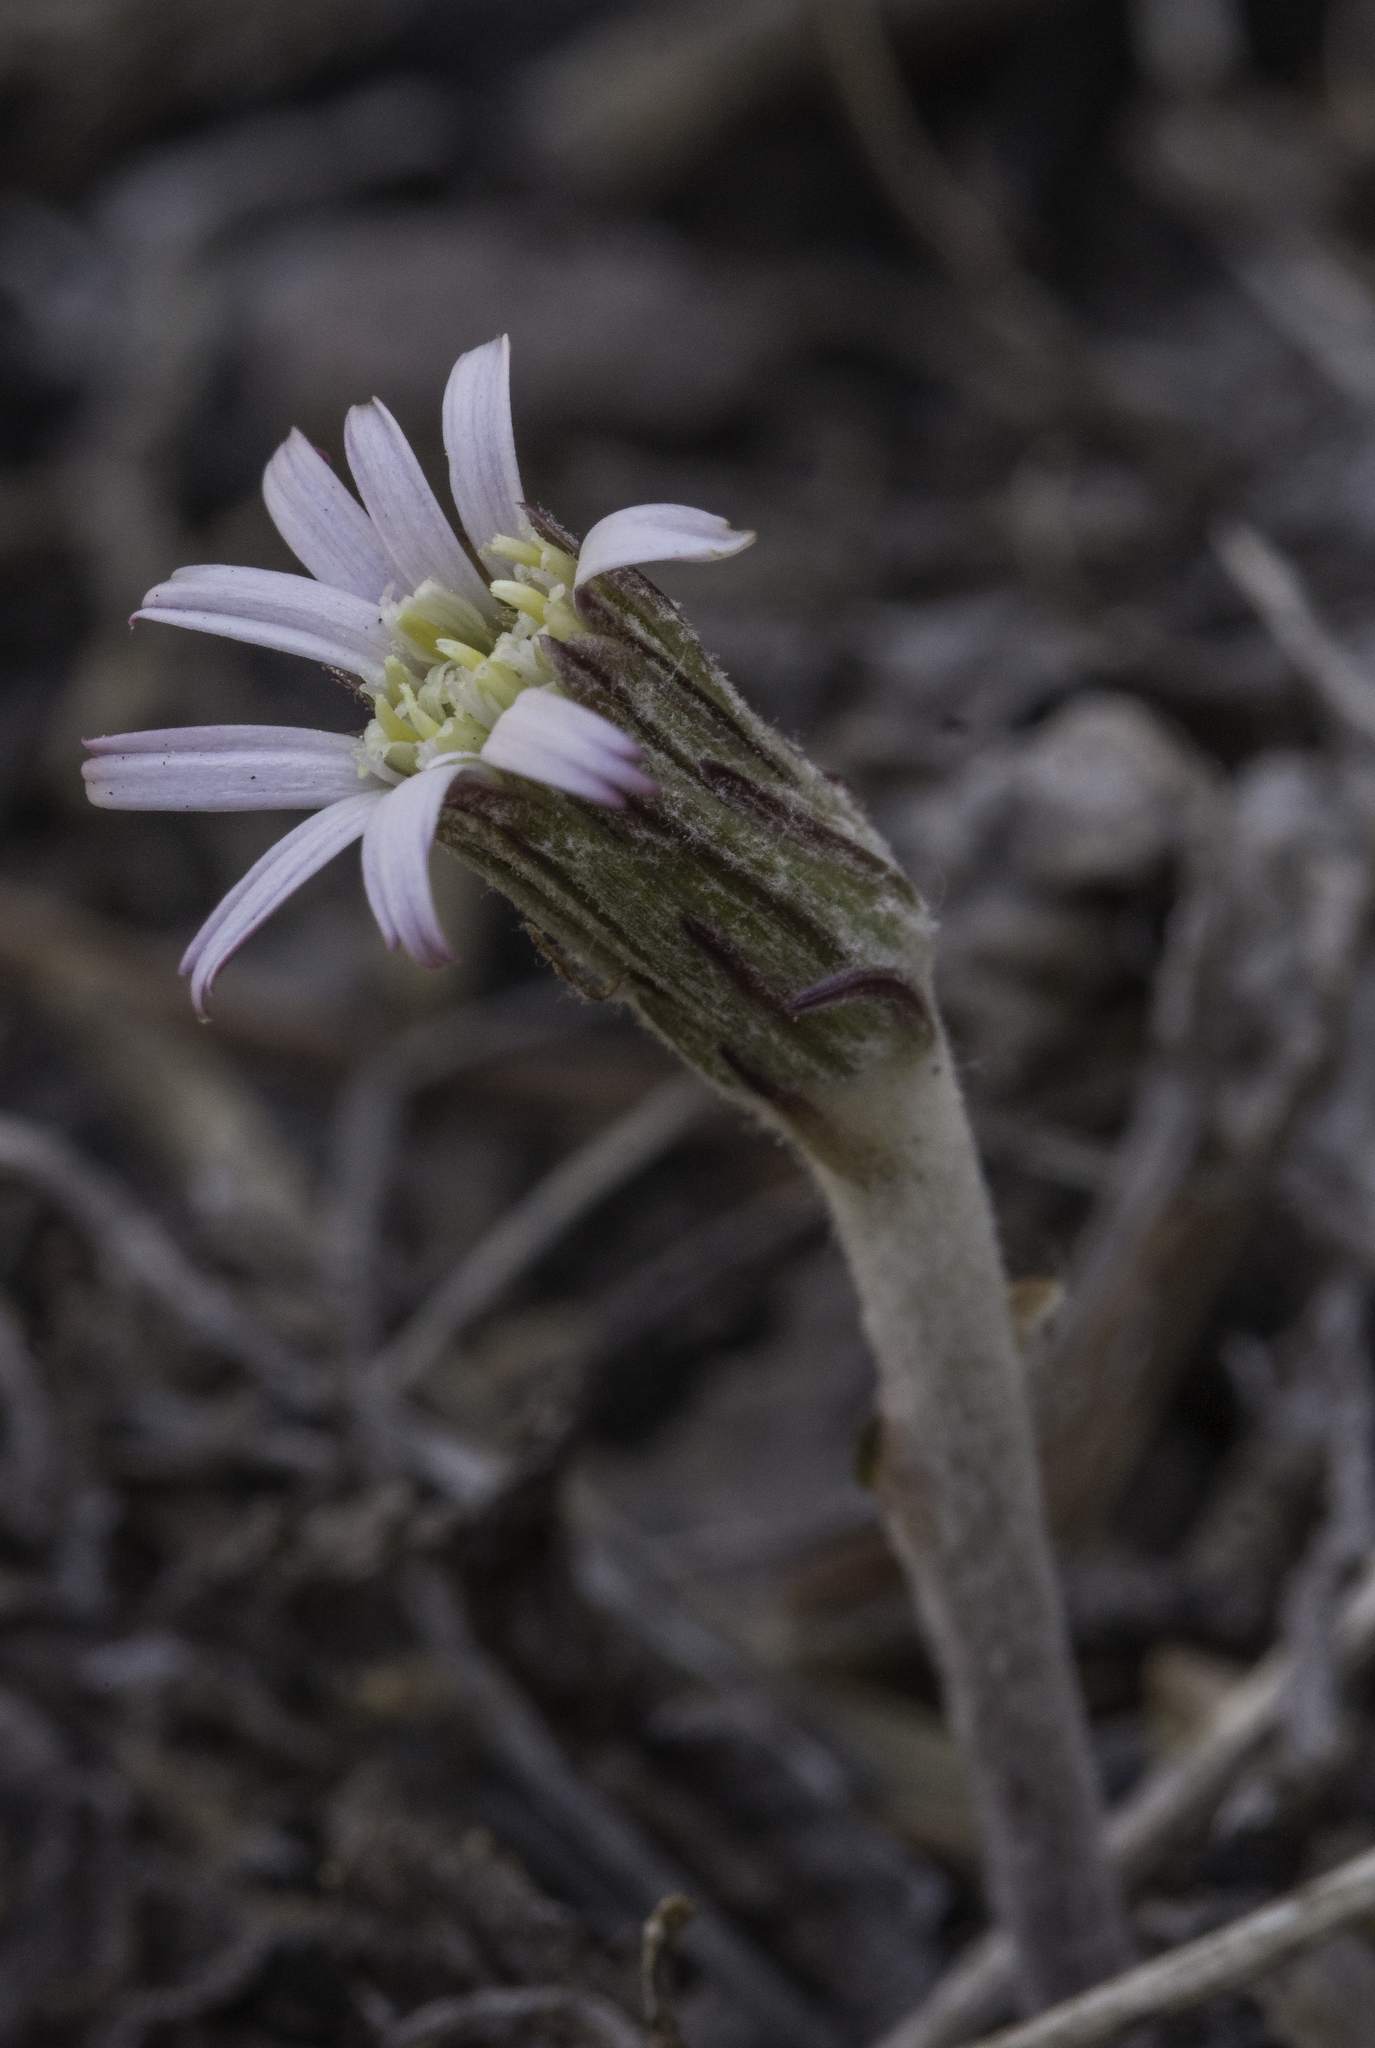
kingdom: Plantae
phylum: Tracheophyta
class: Magnoliopsida
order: Asterales
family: Asteraceae
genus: Leibnitzia
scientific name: Leibnitzia lyrata
